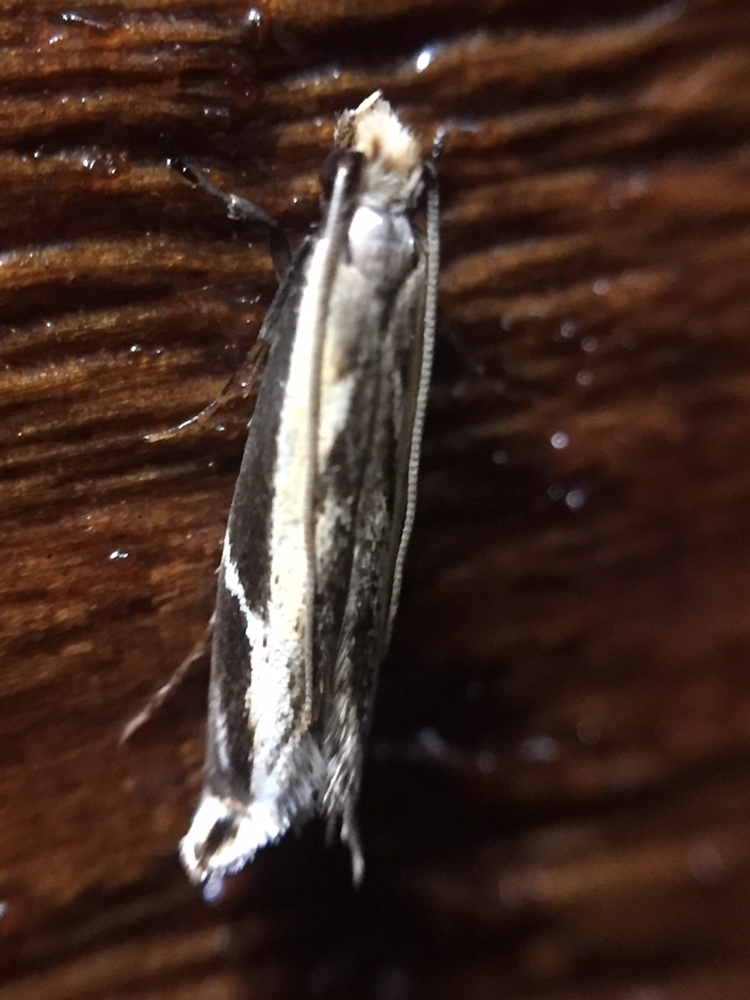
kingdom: Animalia
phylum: Arthropoda
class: Insecta
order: Lepidoptera
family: Tineidae
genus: Erechthias
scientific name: Erechthias terminella
